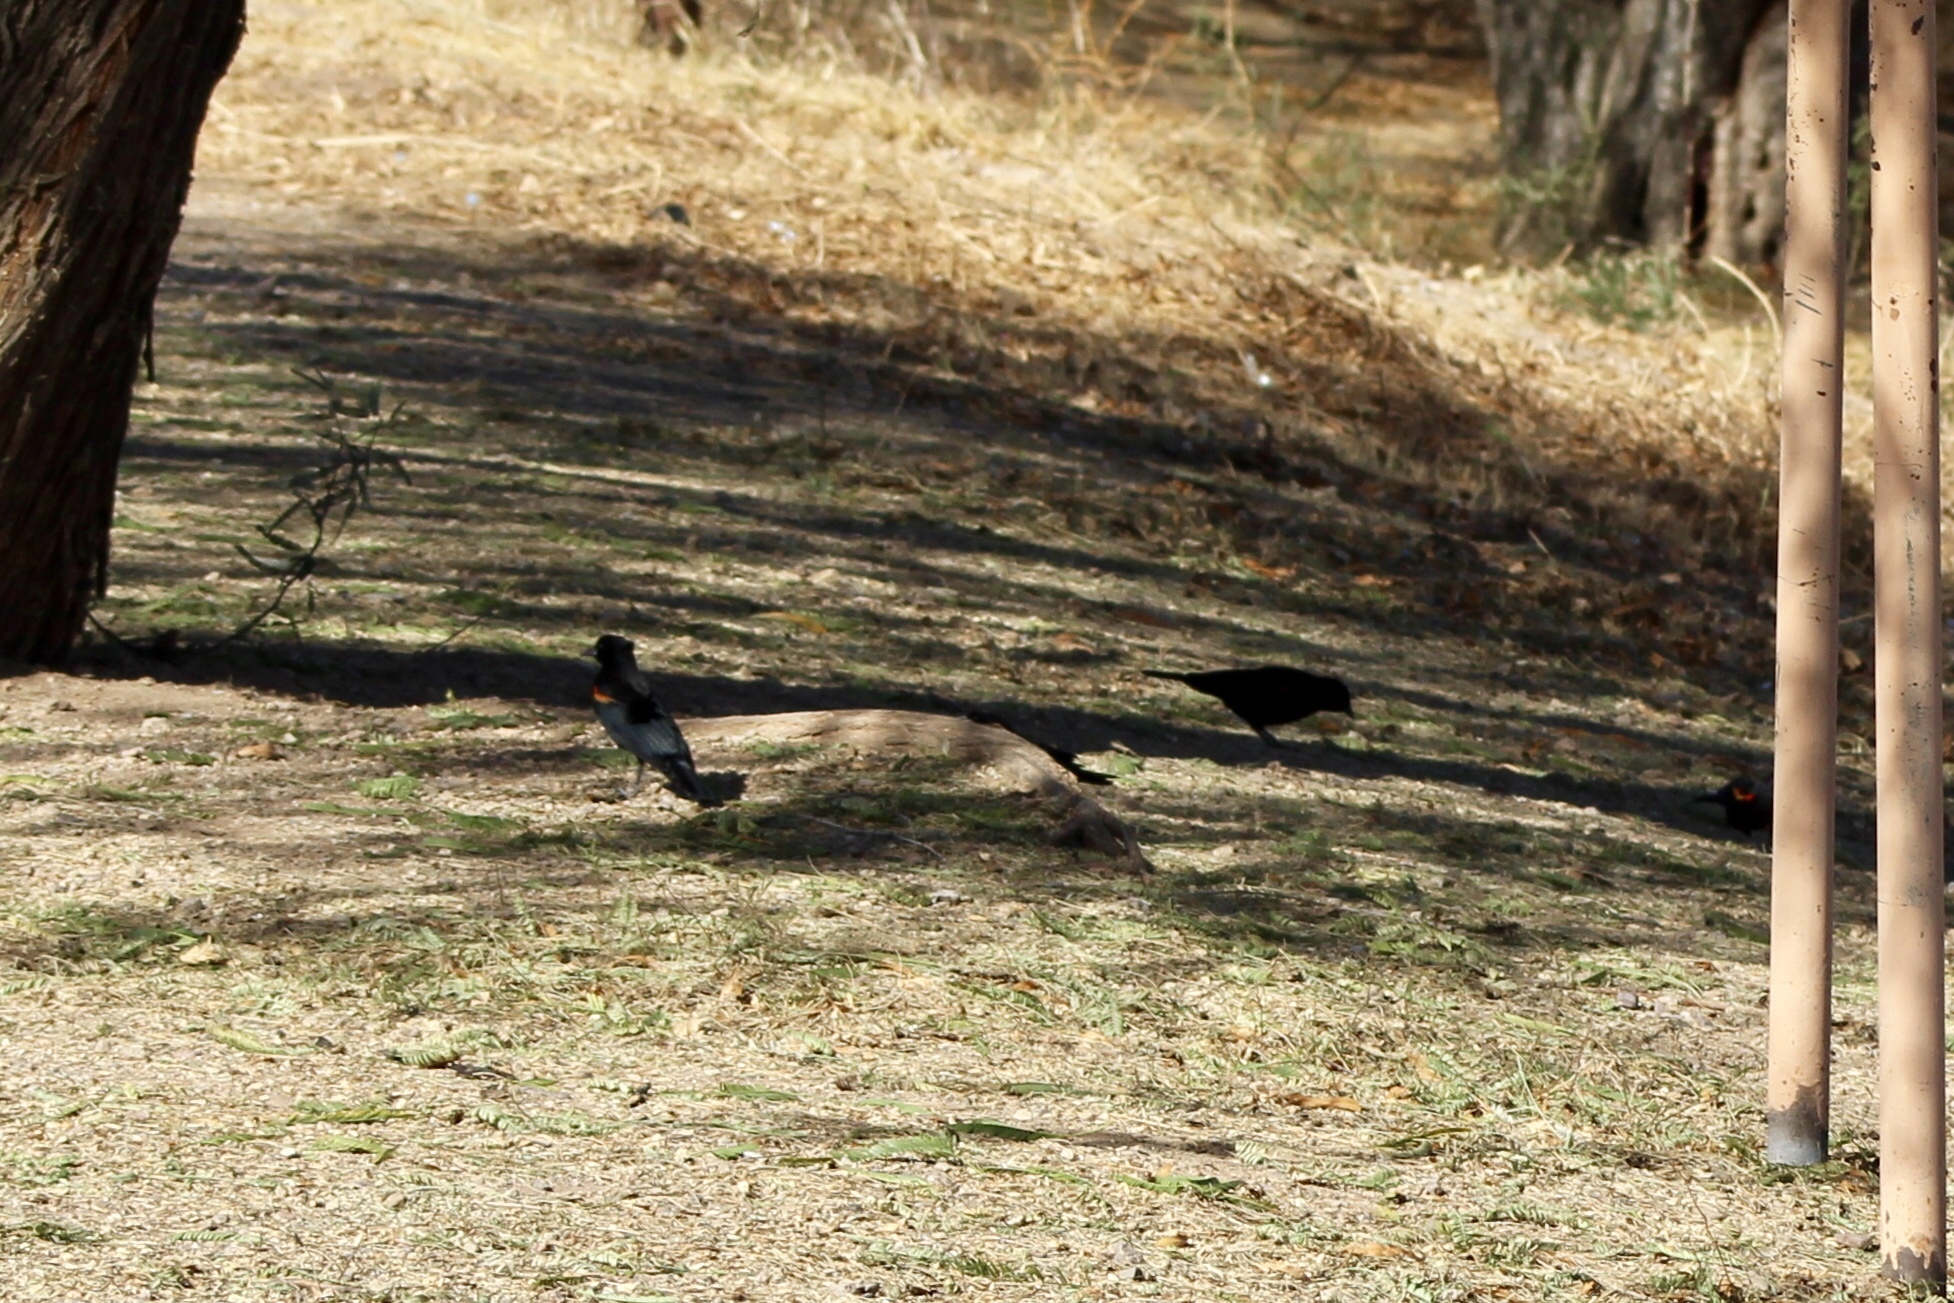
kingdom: Animalia
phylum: Chordata
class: Aves
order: Passeriformes
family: Icteridae
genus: Agelaius
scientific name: Agelaius phoeniceus
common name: Red-winged blackbird
